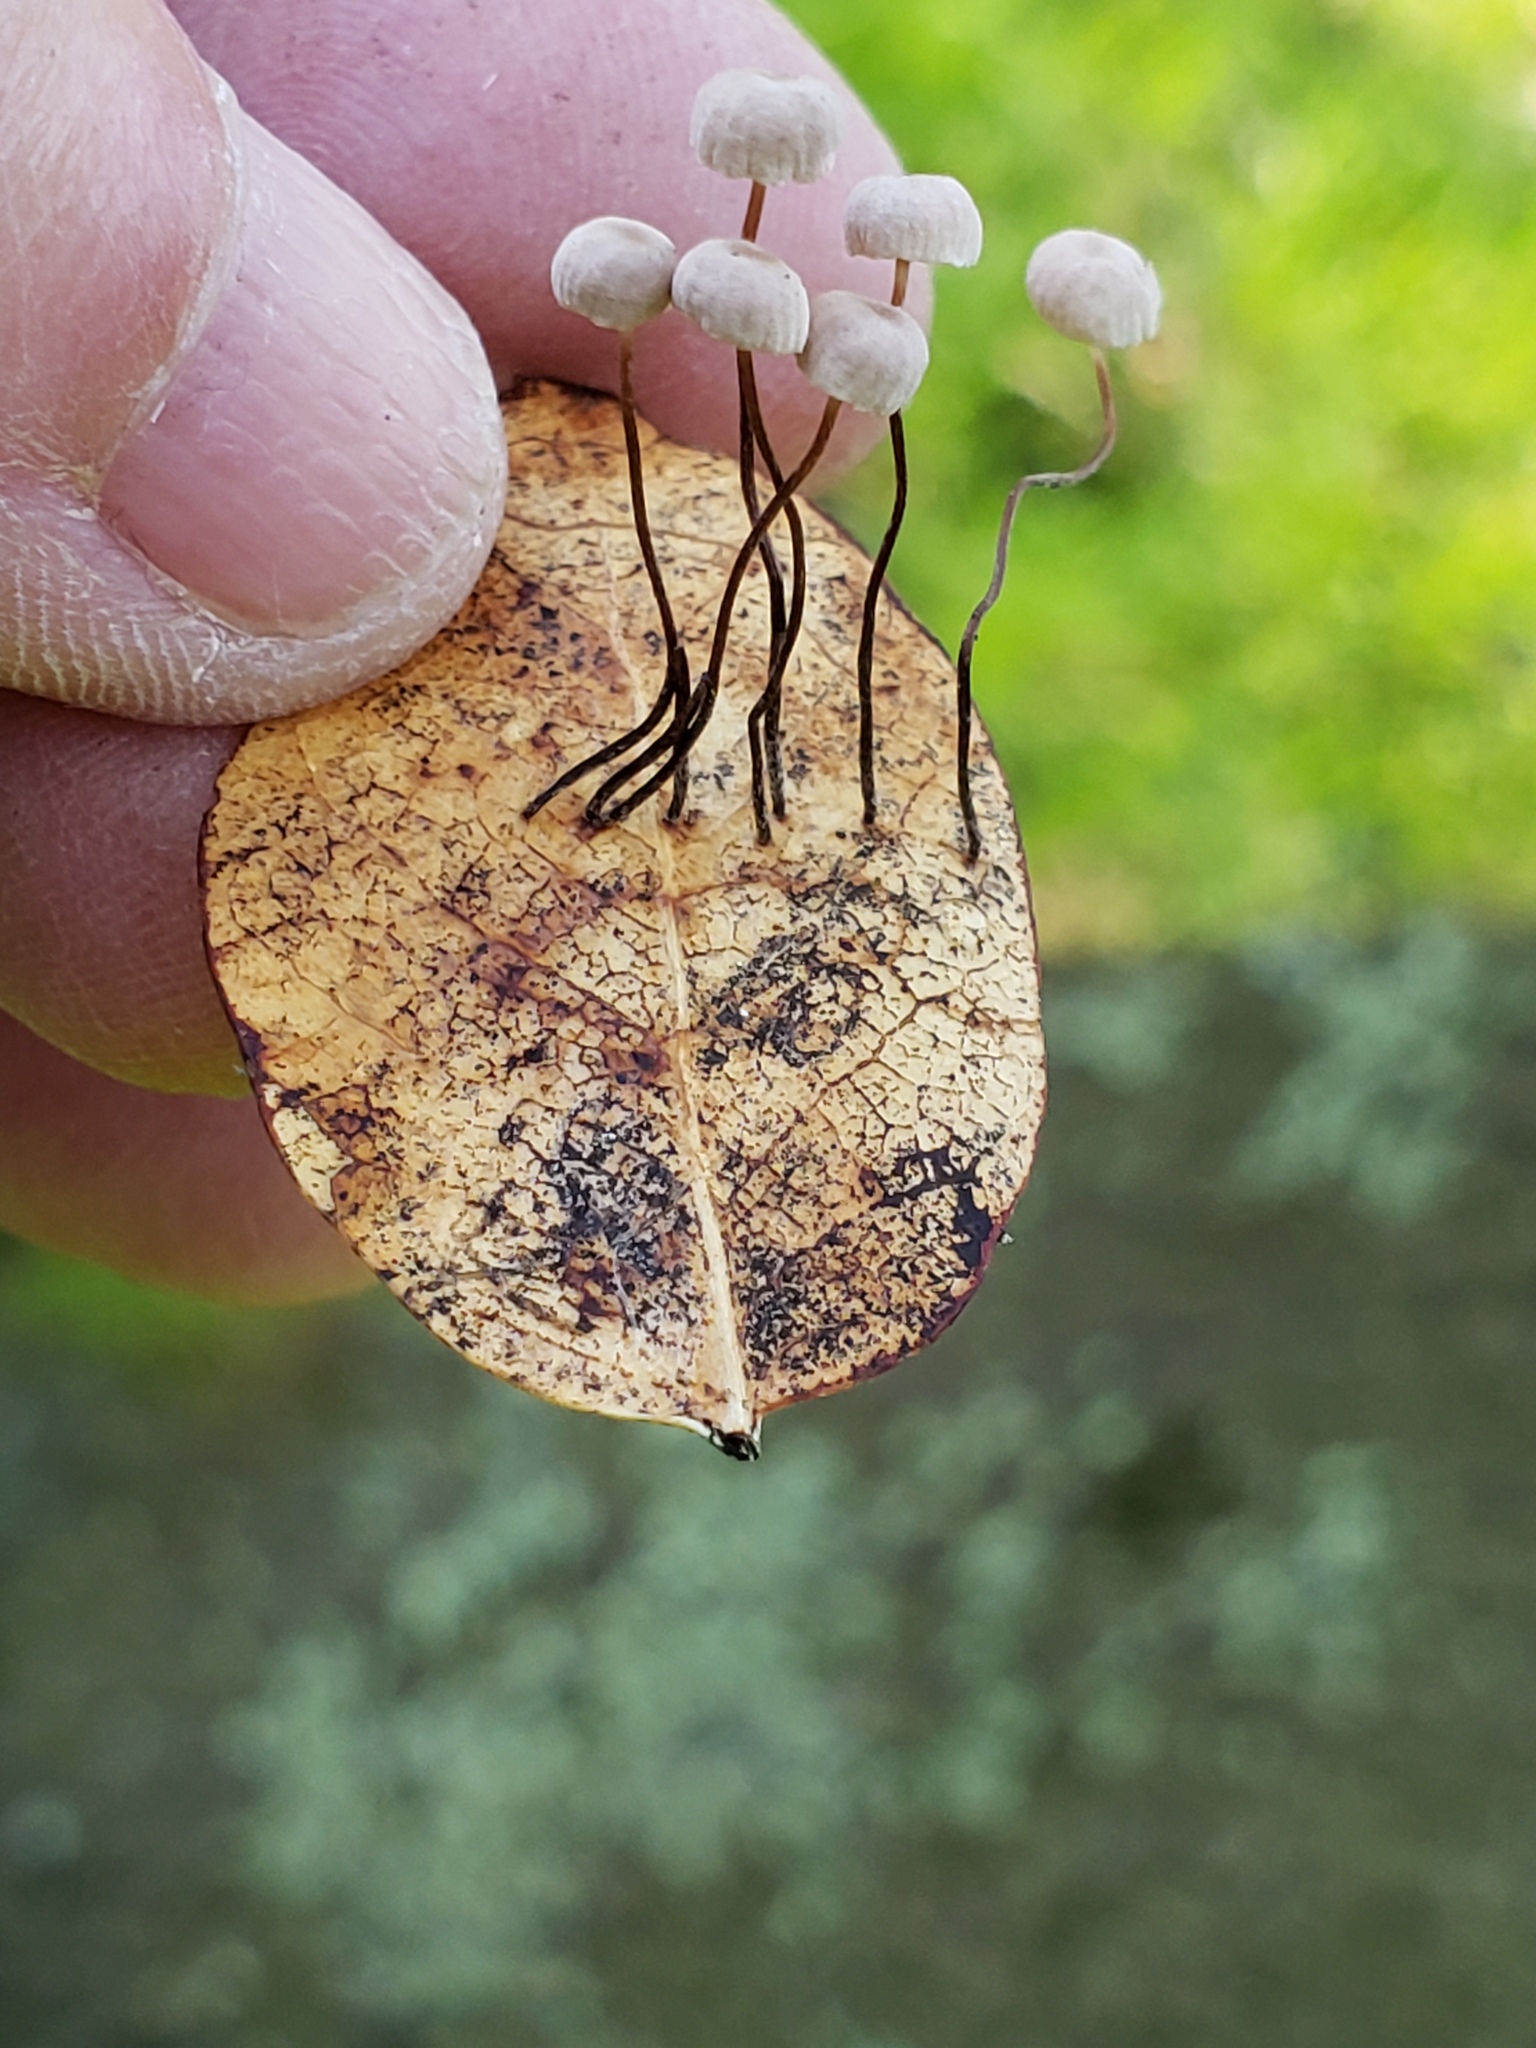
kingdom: Fungi
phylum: Basidiomycota
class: Agaricomycetes
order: Agaricales
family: Omphalotaceae
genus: Collybiopsis
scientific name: Collybiopsis quercophila
